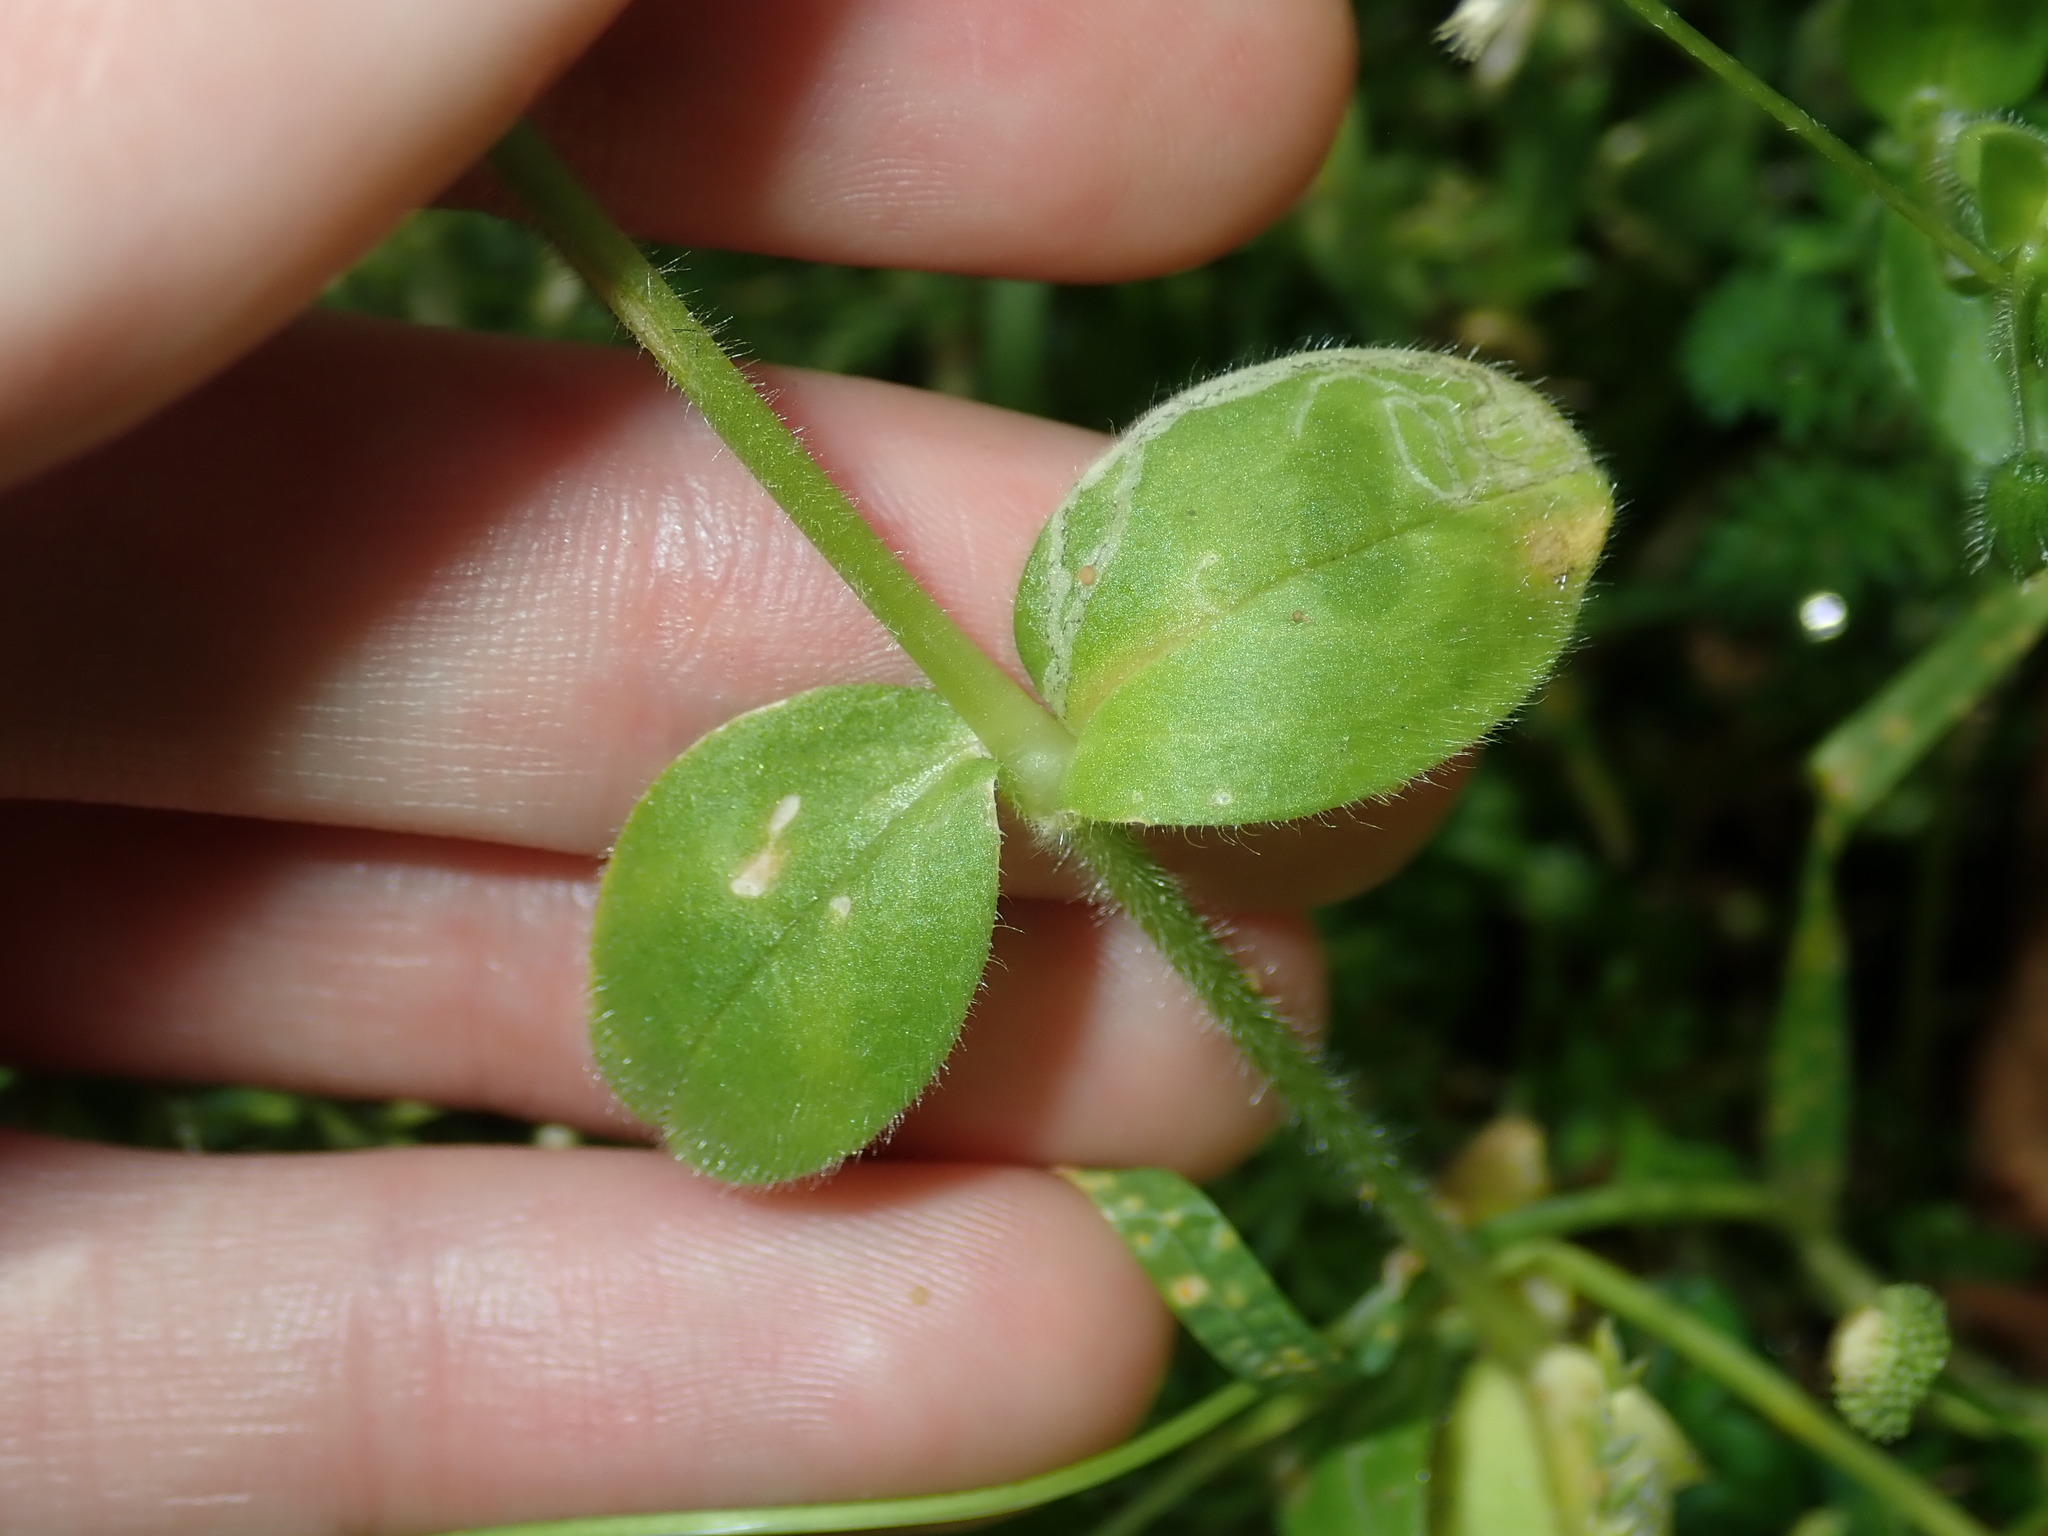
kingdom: Plantae
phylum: Tracheophyta
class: Magnoliopsida
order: Caryophyllales
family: Caryophyllaceae
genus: Cerastium
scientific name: Cerastium glomeratum
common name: Sticky chickweed
